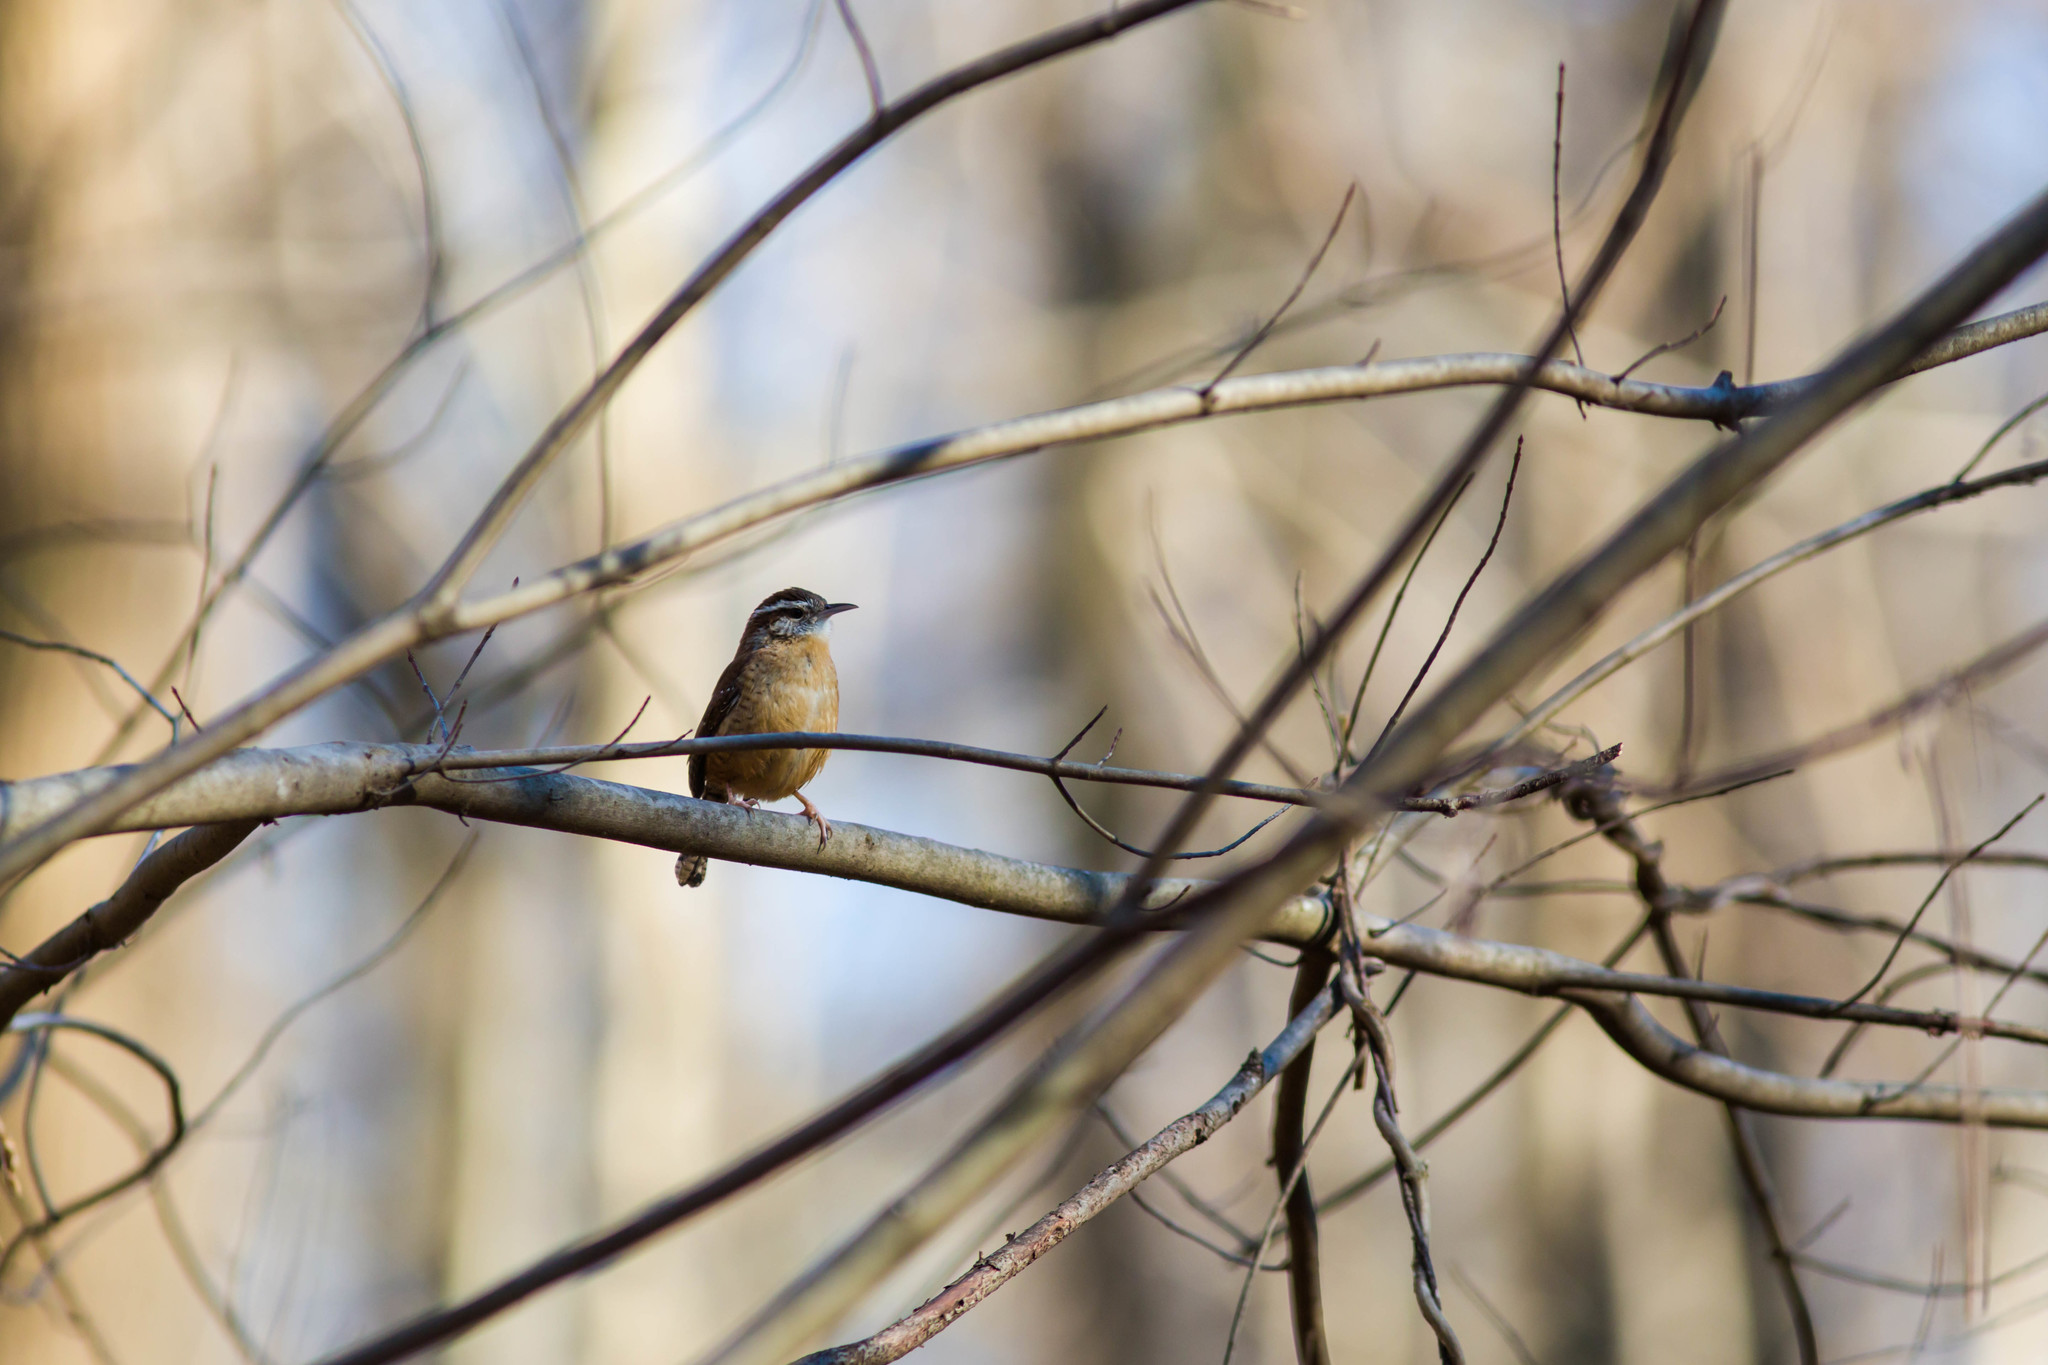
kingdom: Animalia
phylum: Chordata
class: Aves
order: Passeriformes
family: Troglodytidae
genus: Thryothorus
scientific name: Thryothorus ludovicianus
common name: Carolina wren
